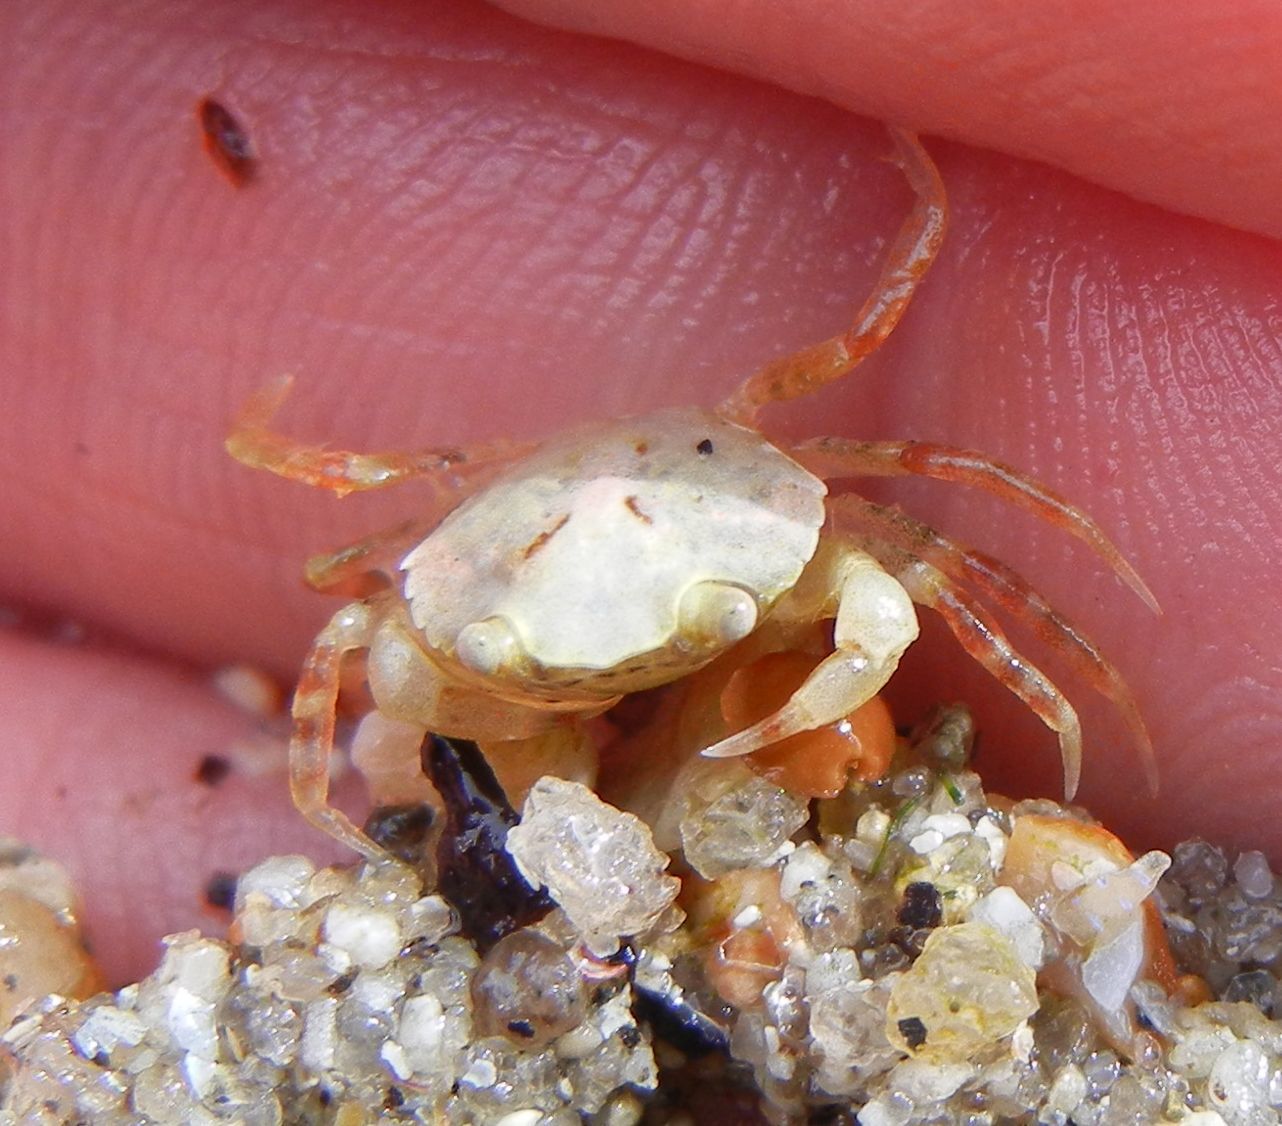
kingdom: Animalia
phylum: Arthropoda
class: Malacostraca
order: Decapoda
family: Carcinidae
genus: Carcinus
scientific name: Carcinus maenas
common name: European green crab
